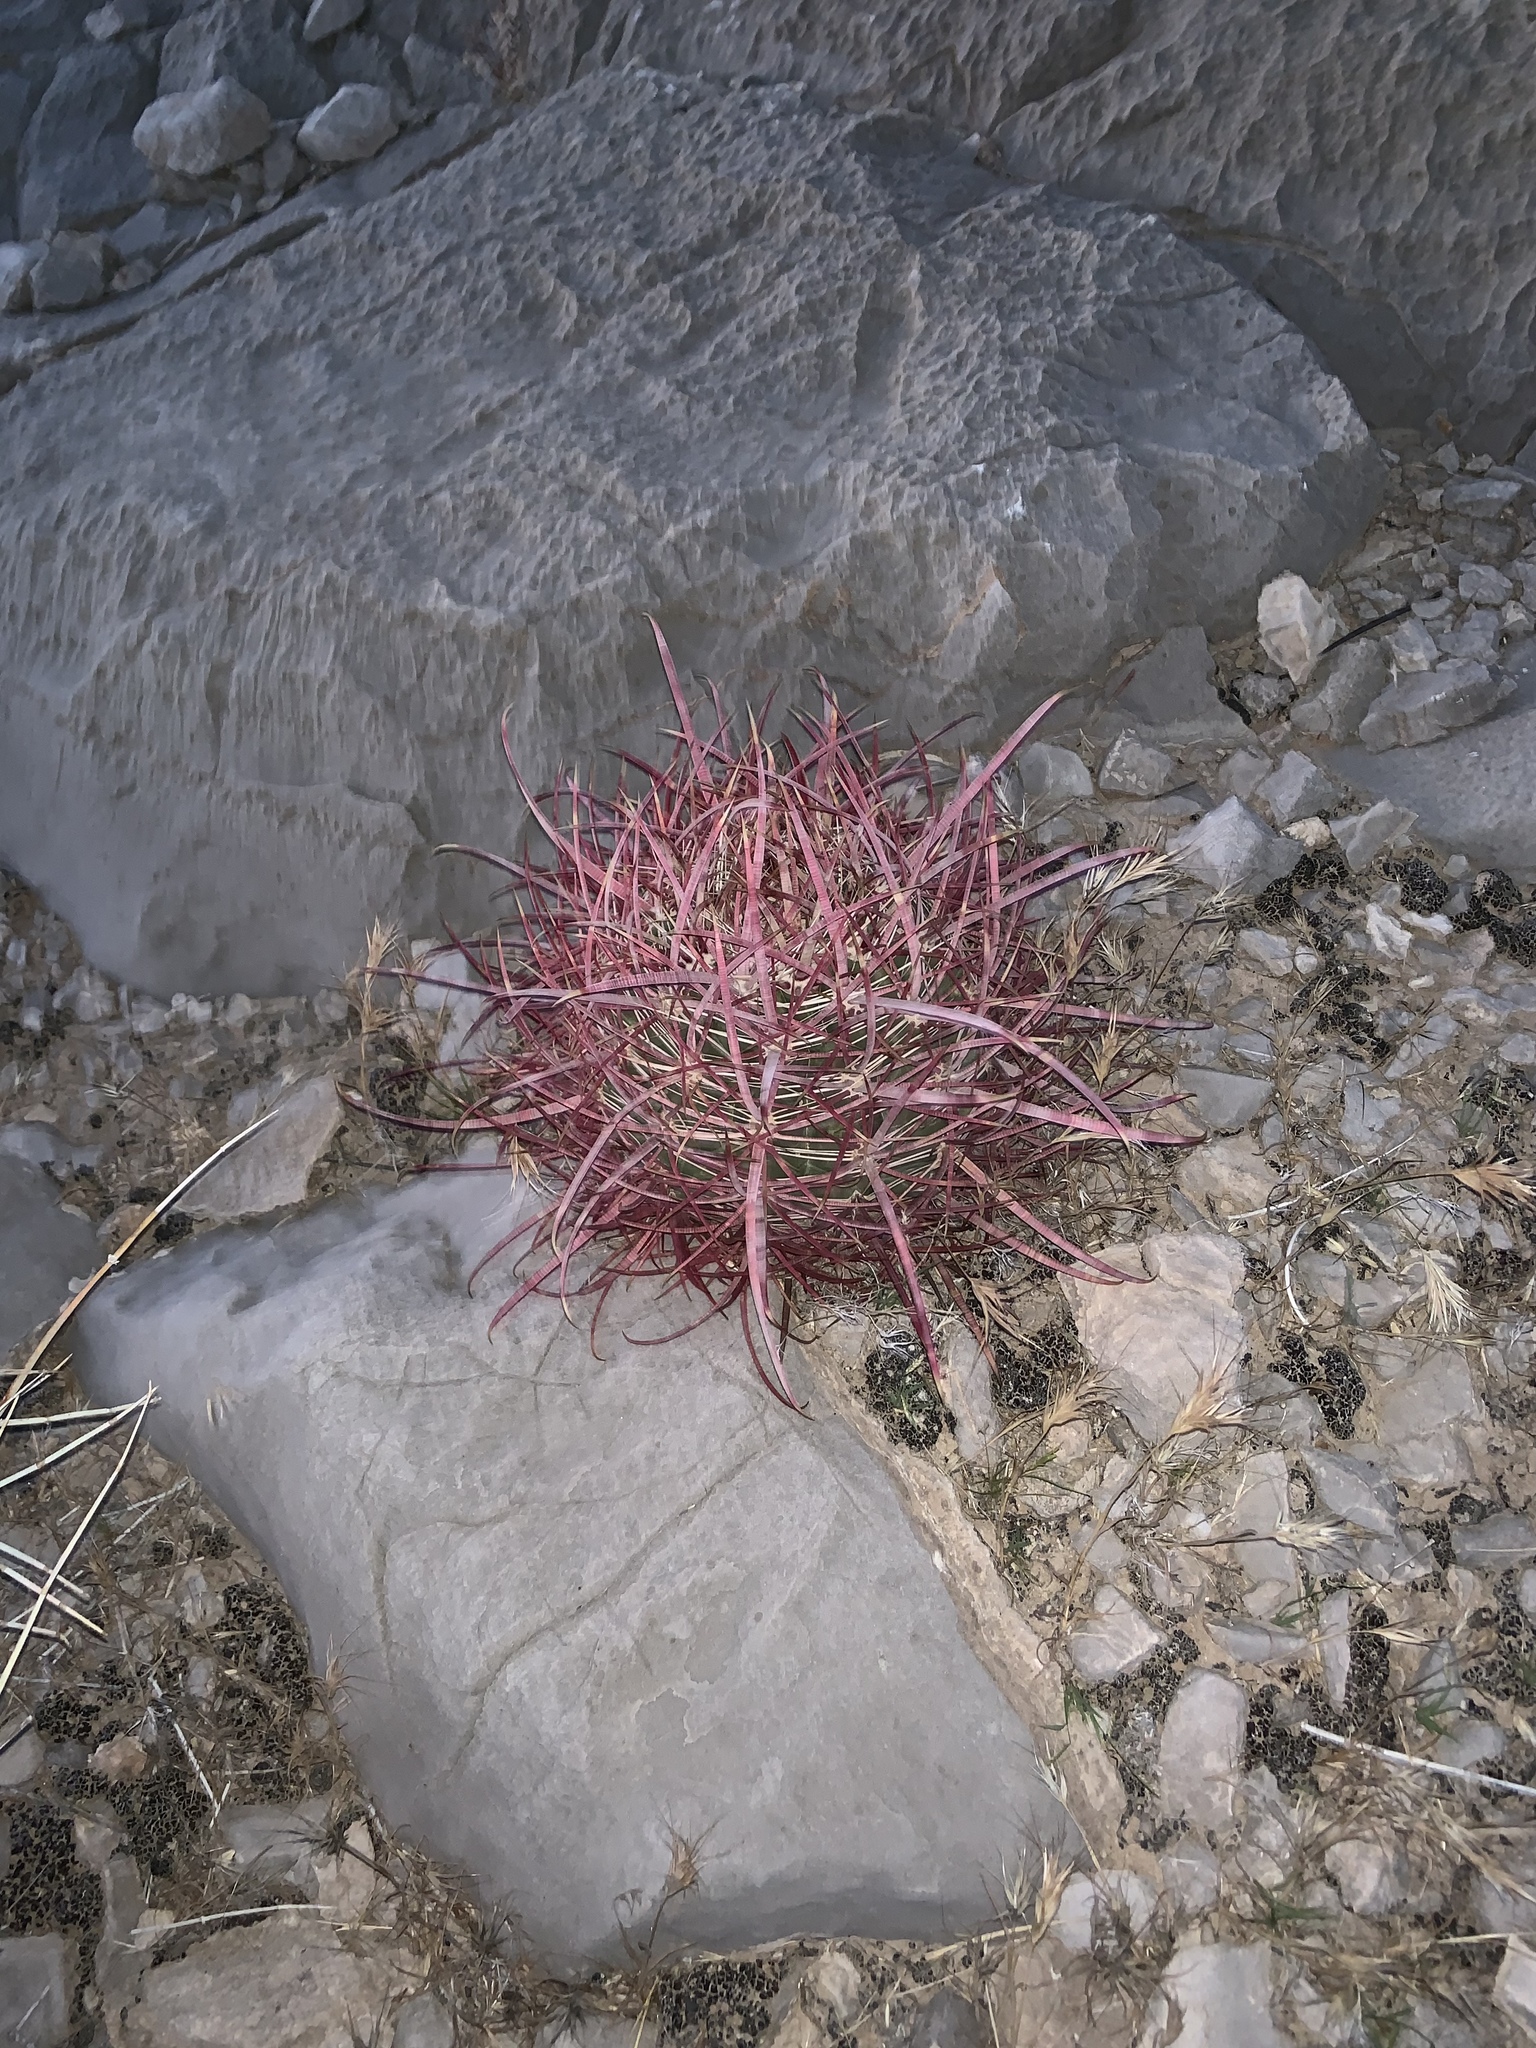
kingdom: Plantae
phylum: Tracheophyta
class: Magnoliopsida
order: Caryophyllales
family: Cactaceae
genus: Ferocactus
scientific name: Ferocactus cylindraceus
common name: California barrel cactus
